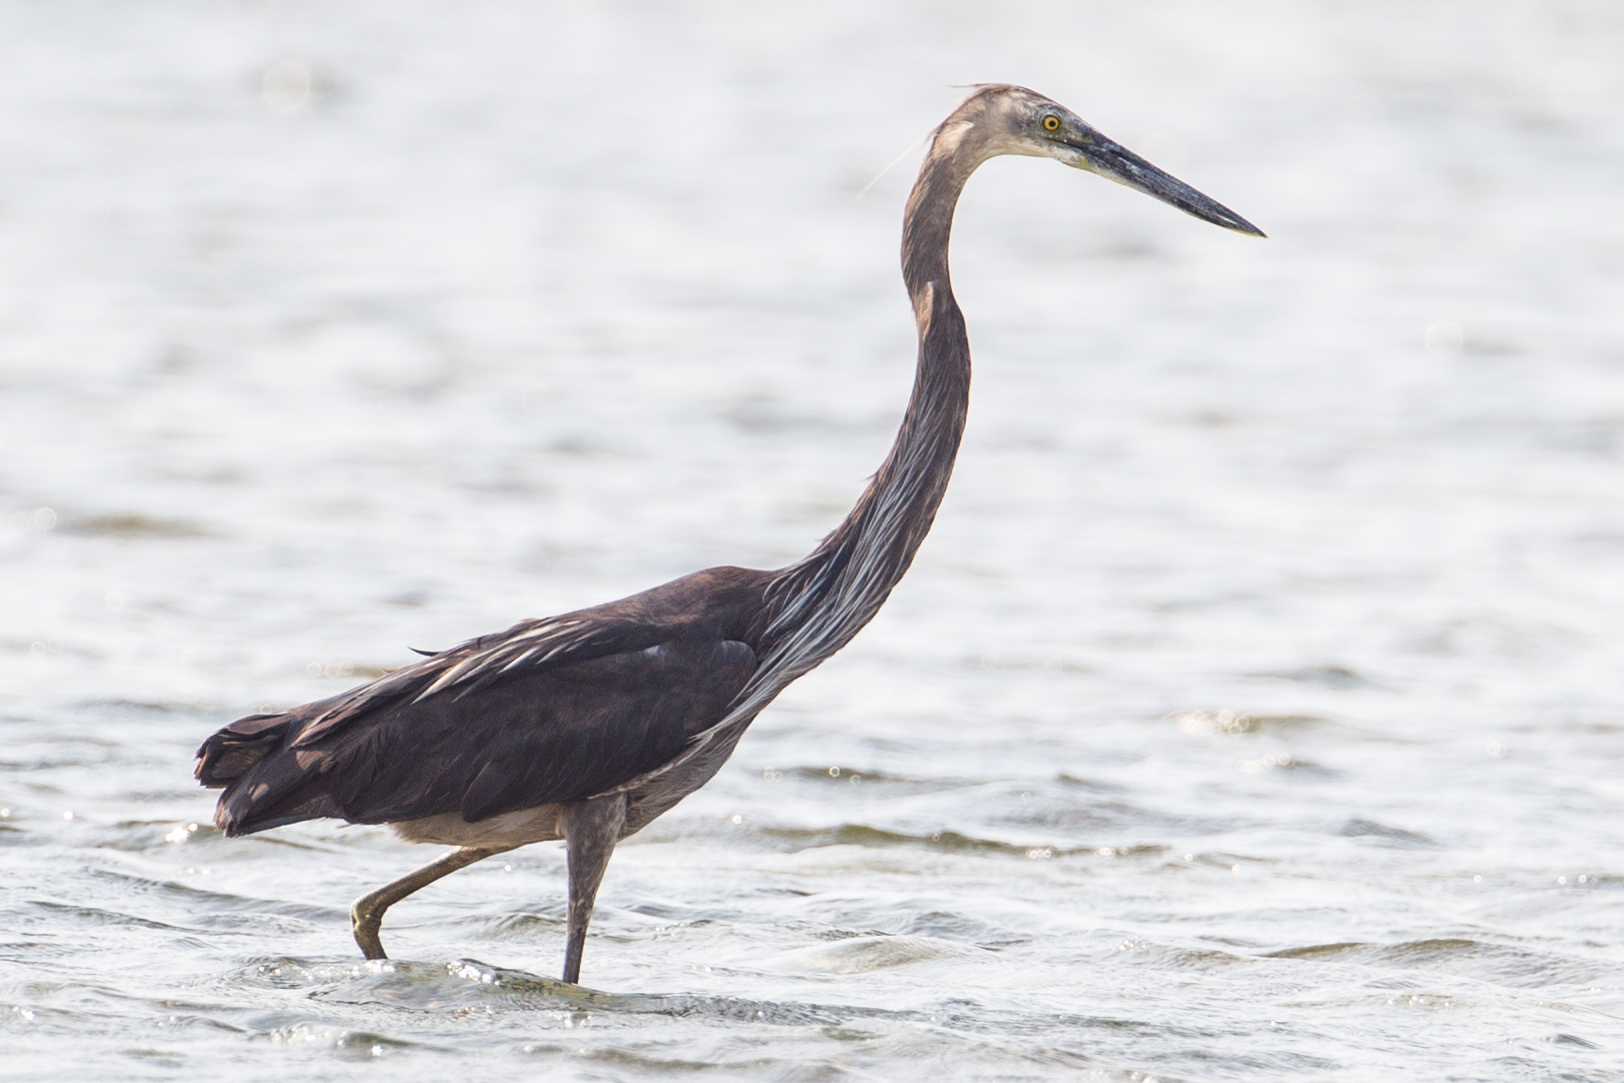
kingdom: Animalia
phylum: Chordata
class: Aves
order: Pelecaniformes
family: Ardeidae
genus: Ardea
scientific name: Ardea sumatrana
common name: Great-billed heron
